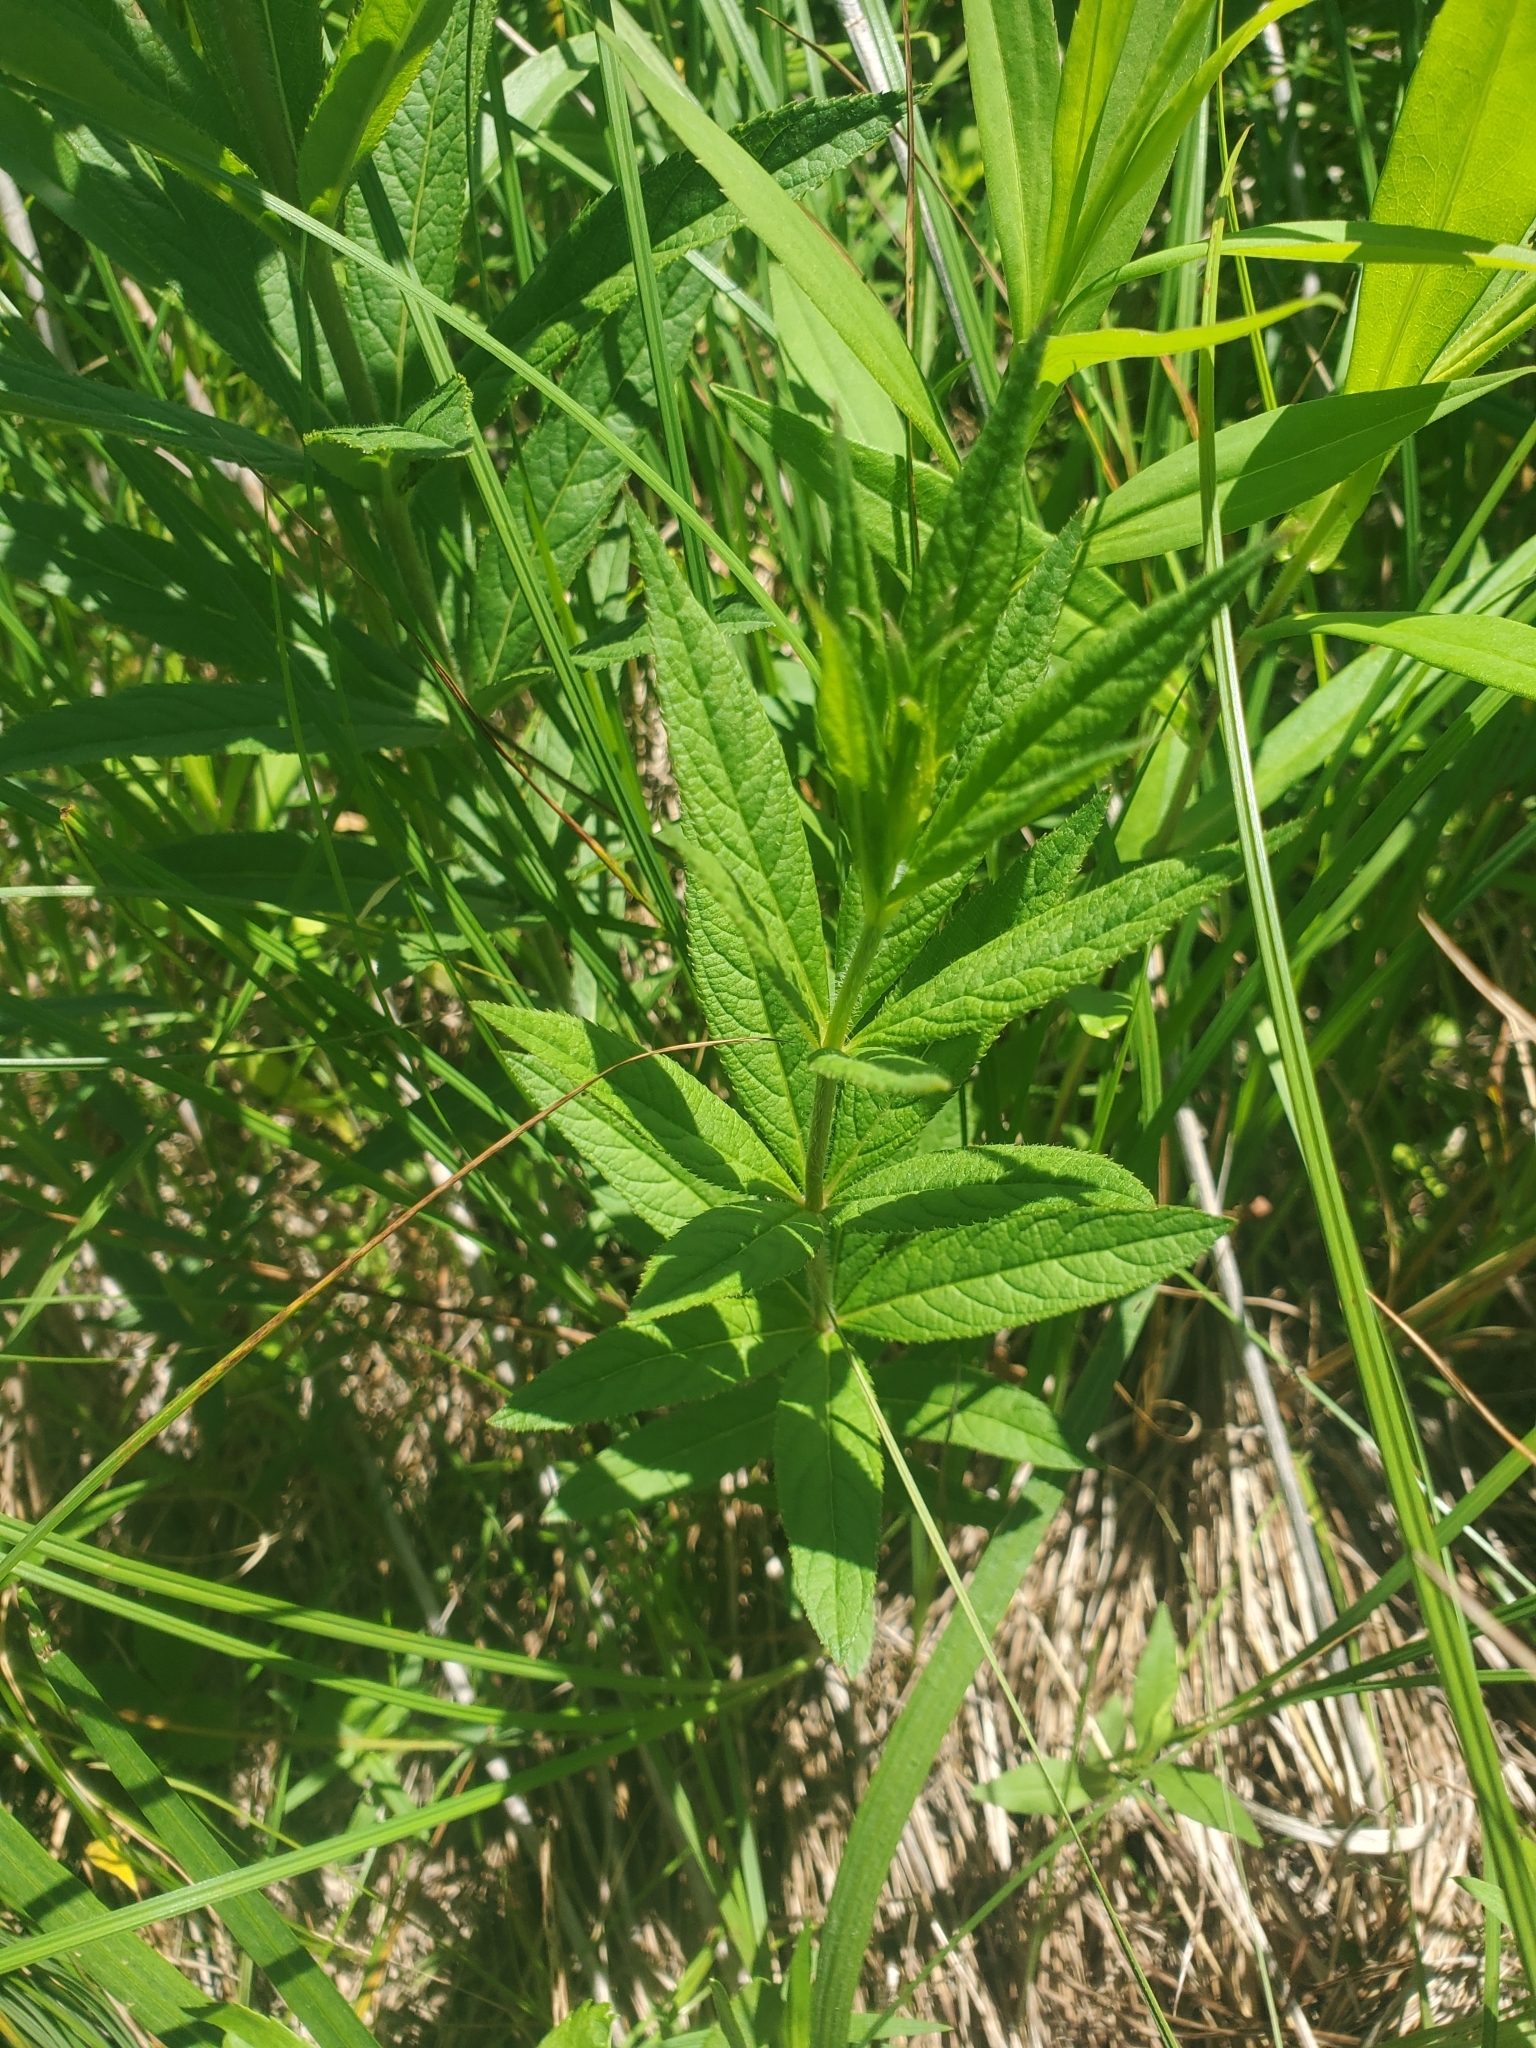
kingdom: Plantae
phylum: Tracheophyta
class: Magnoliopsida
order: Lamiales
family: Plantaginaceae
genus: Veronicastrum
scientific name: Veronicastrum virginicum
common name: Blackroot
